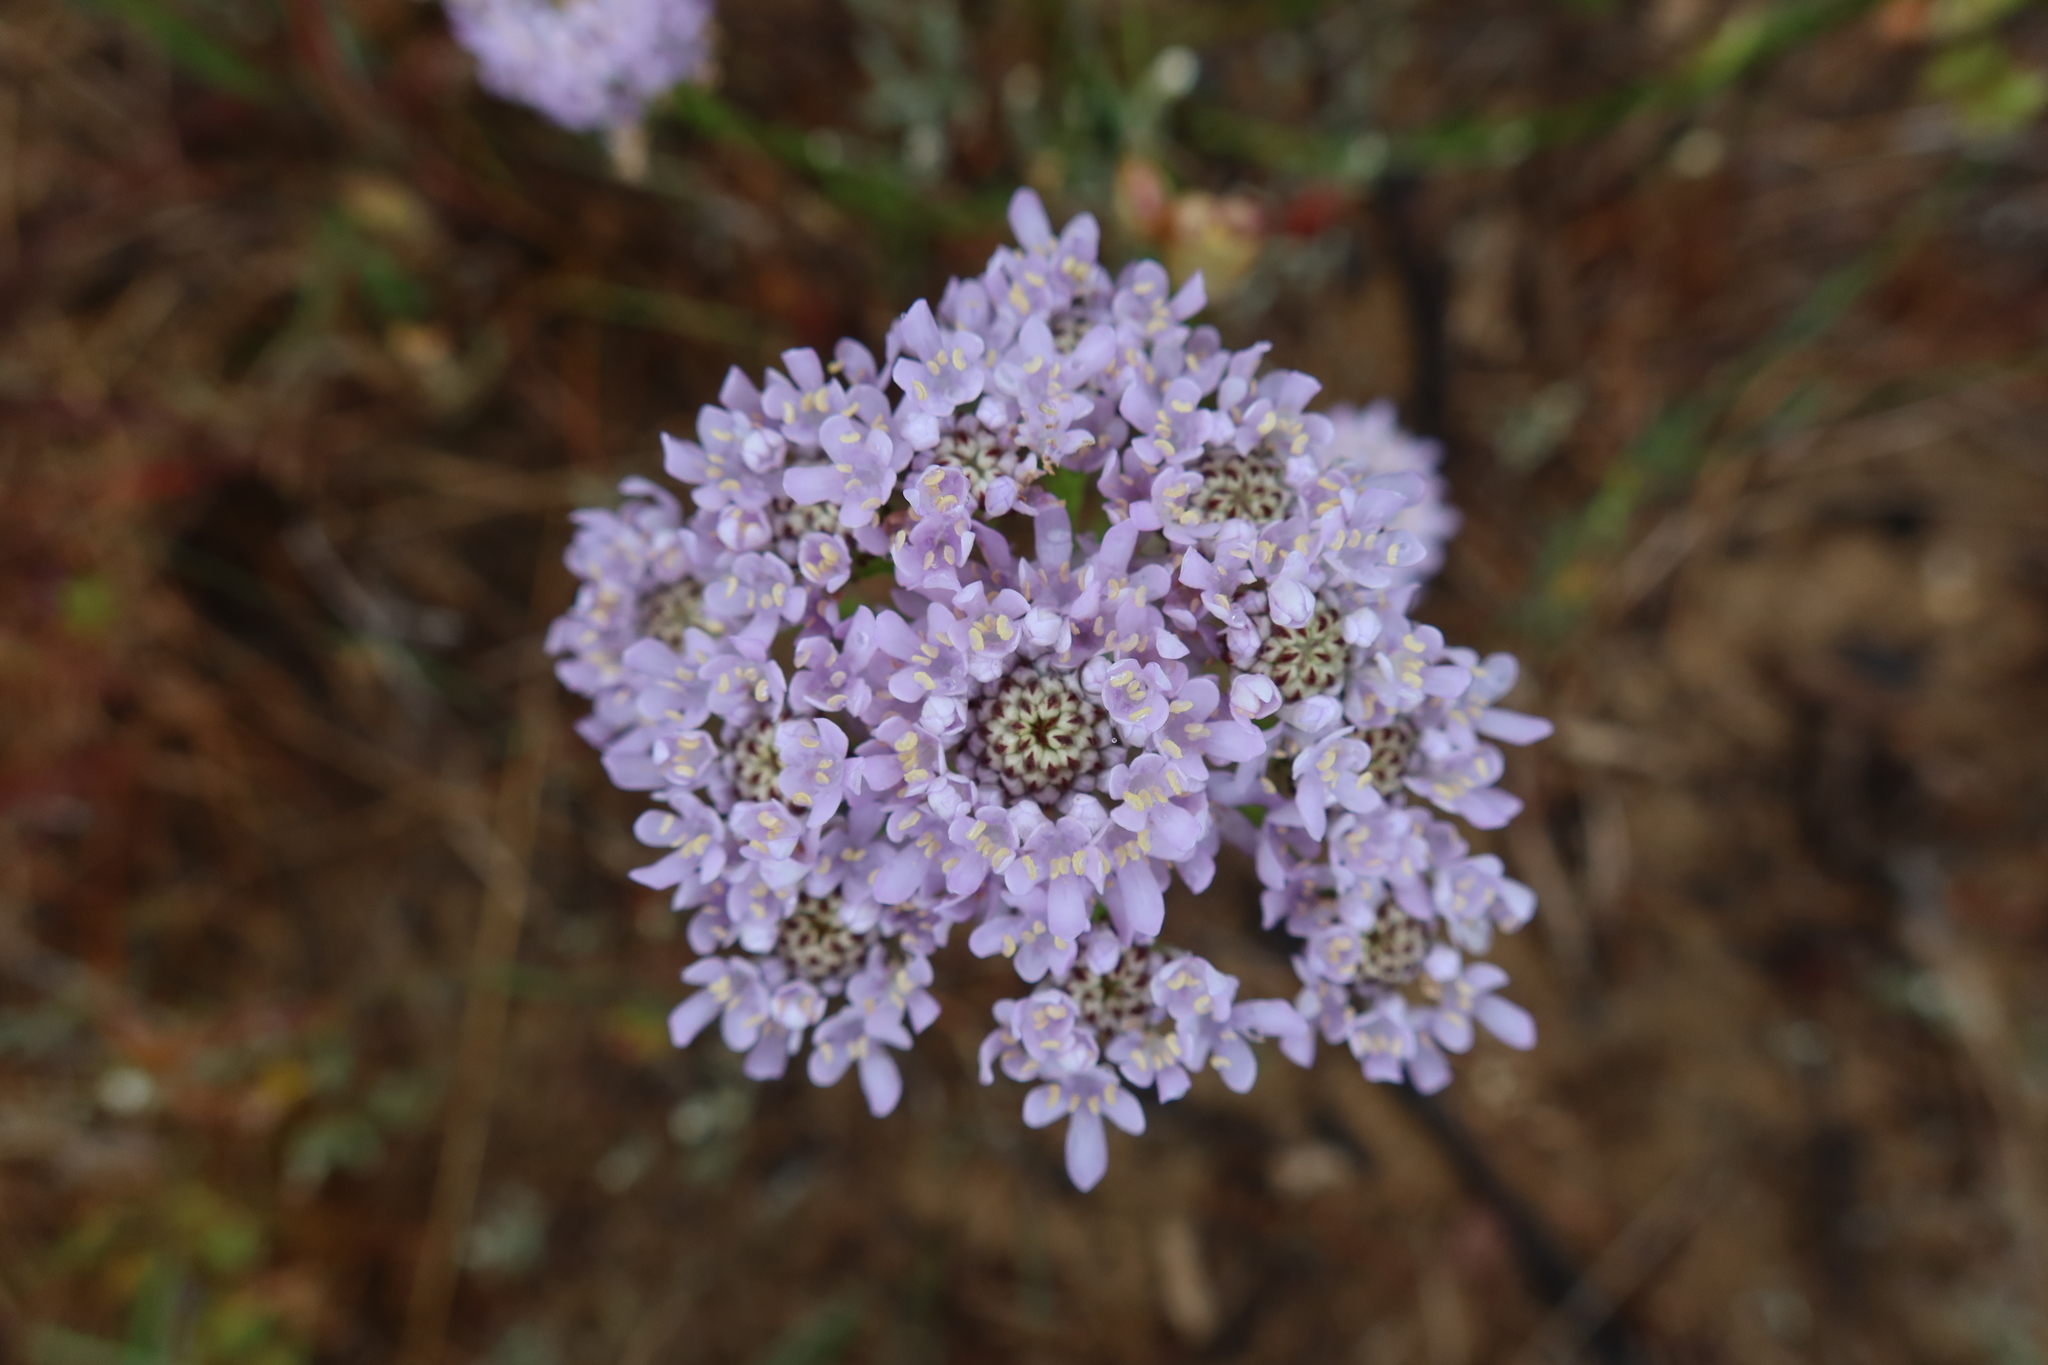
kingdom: Plantae
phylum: Tracheophyta
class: Magnoliopsida
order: Lamiales
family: Scrophulariaceae
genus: Pseudoselago
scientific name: Pseudoselago spuria
